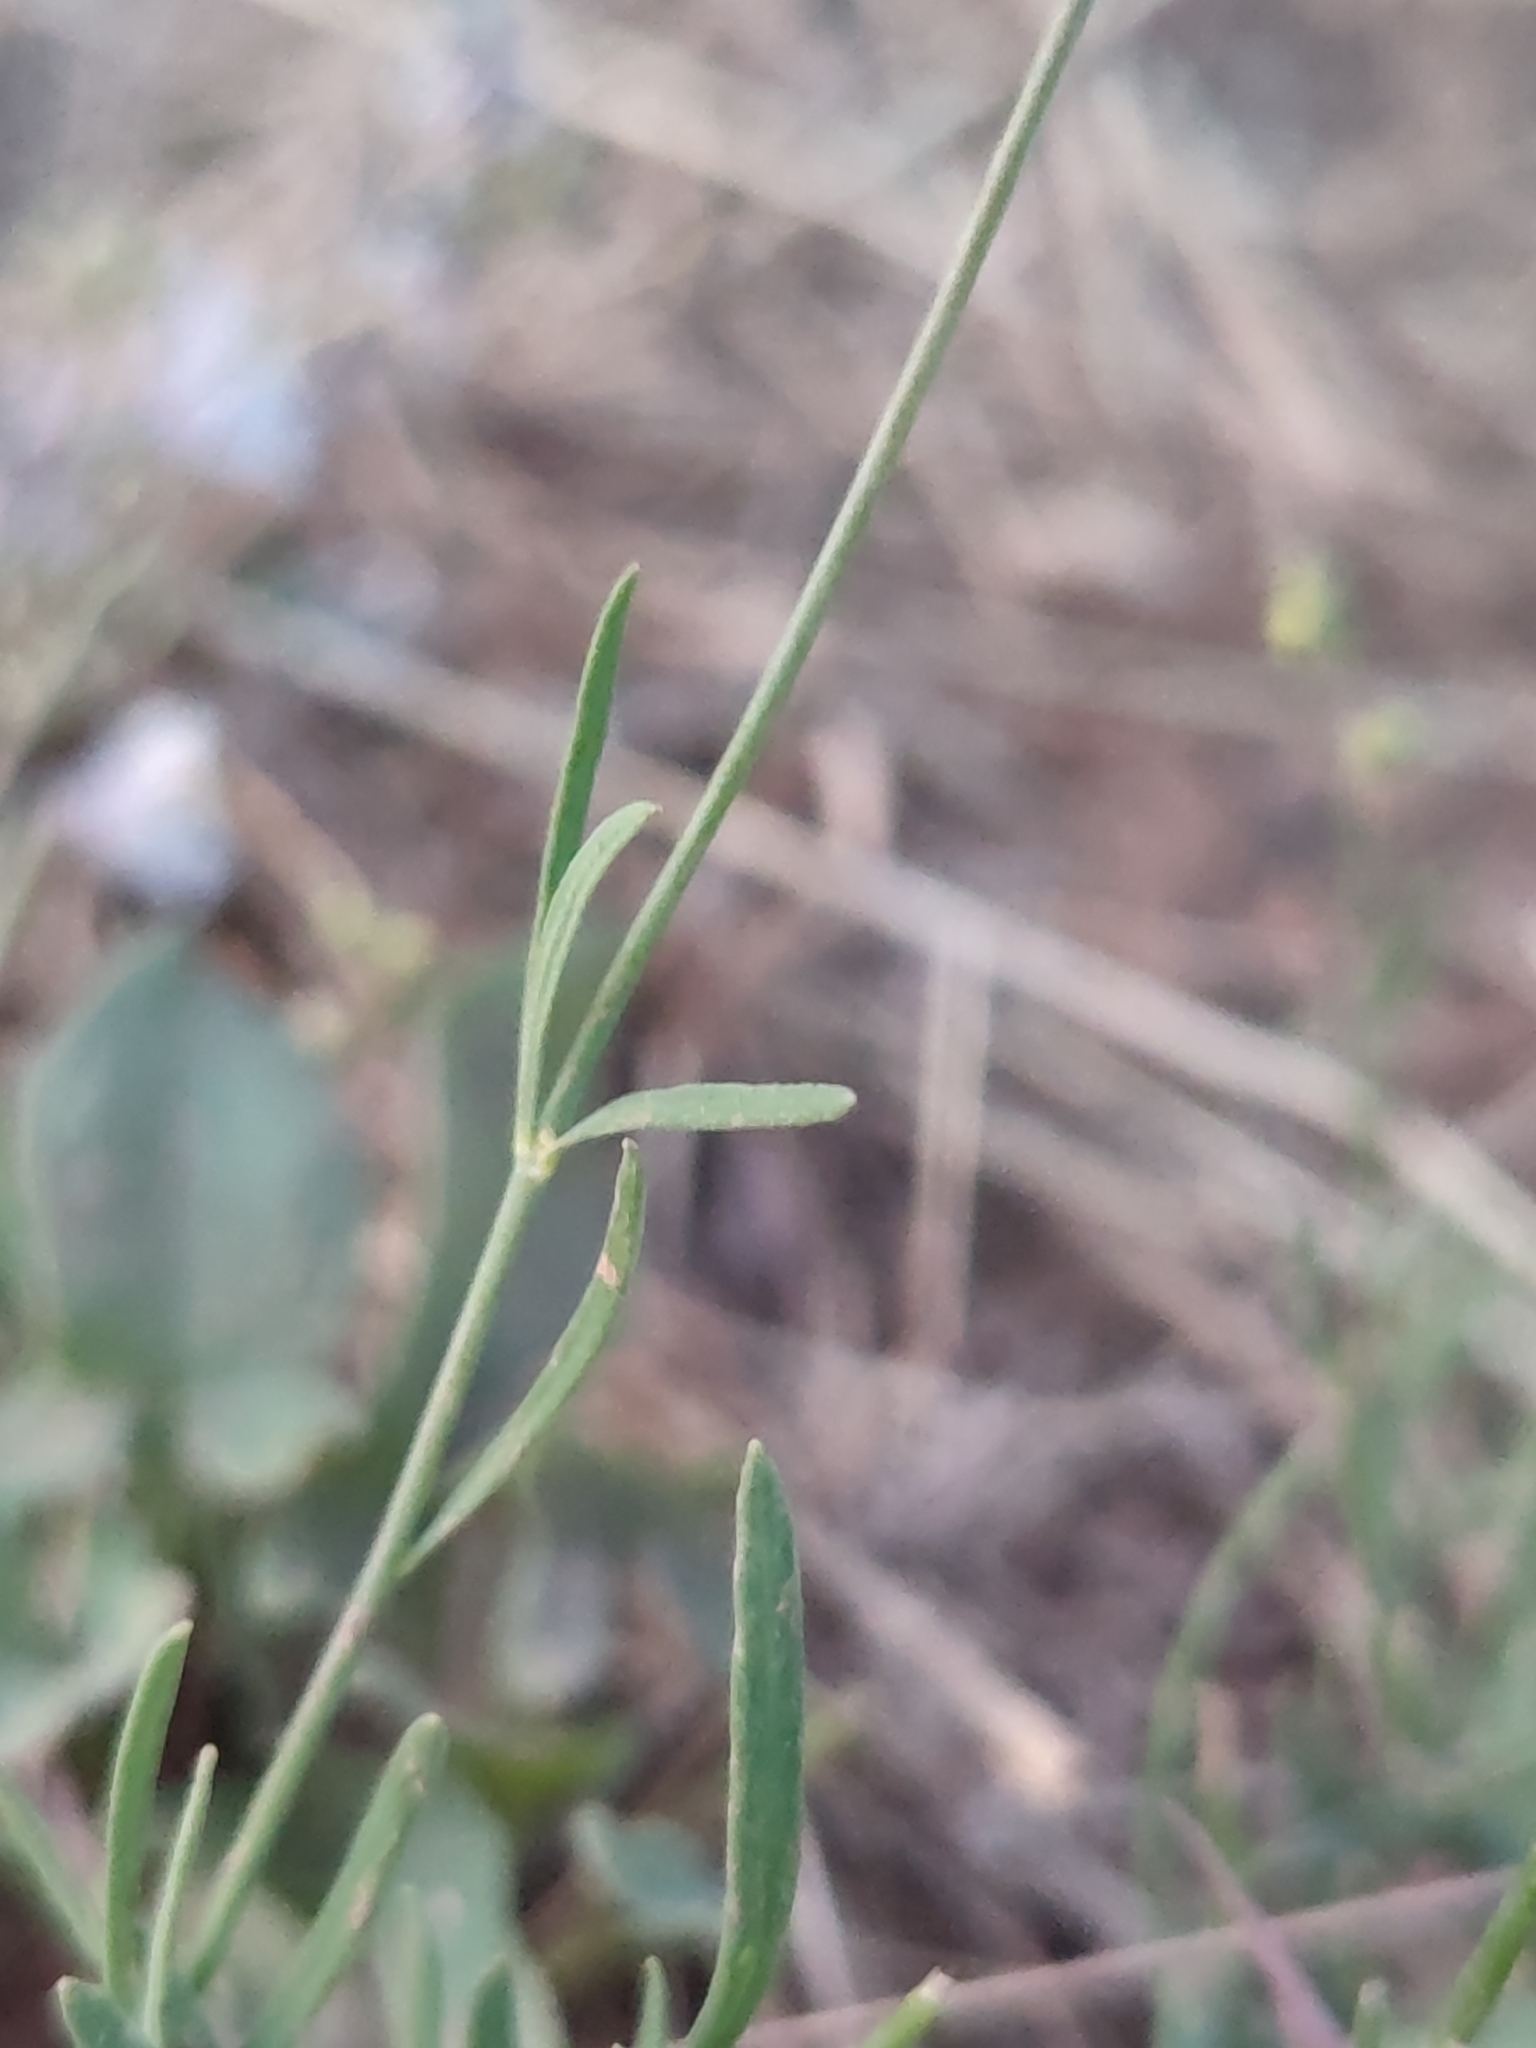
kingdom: Plantae
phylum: Tracheophyta
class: Magnoliopsida
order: Lamiales
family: Plantaginaceae
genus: Linaria
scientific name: Linaria repens
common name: Pale toadflax
